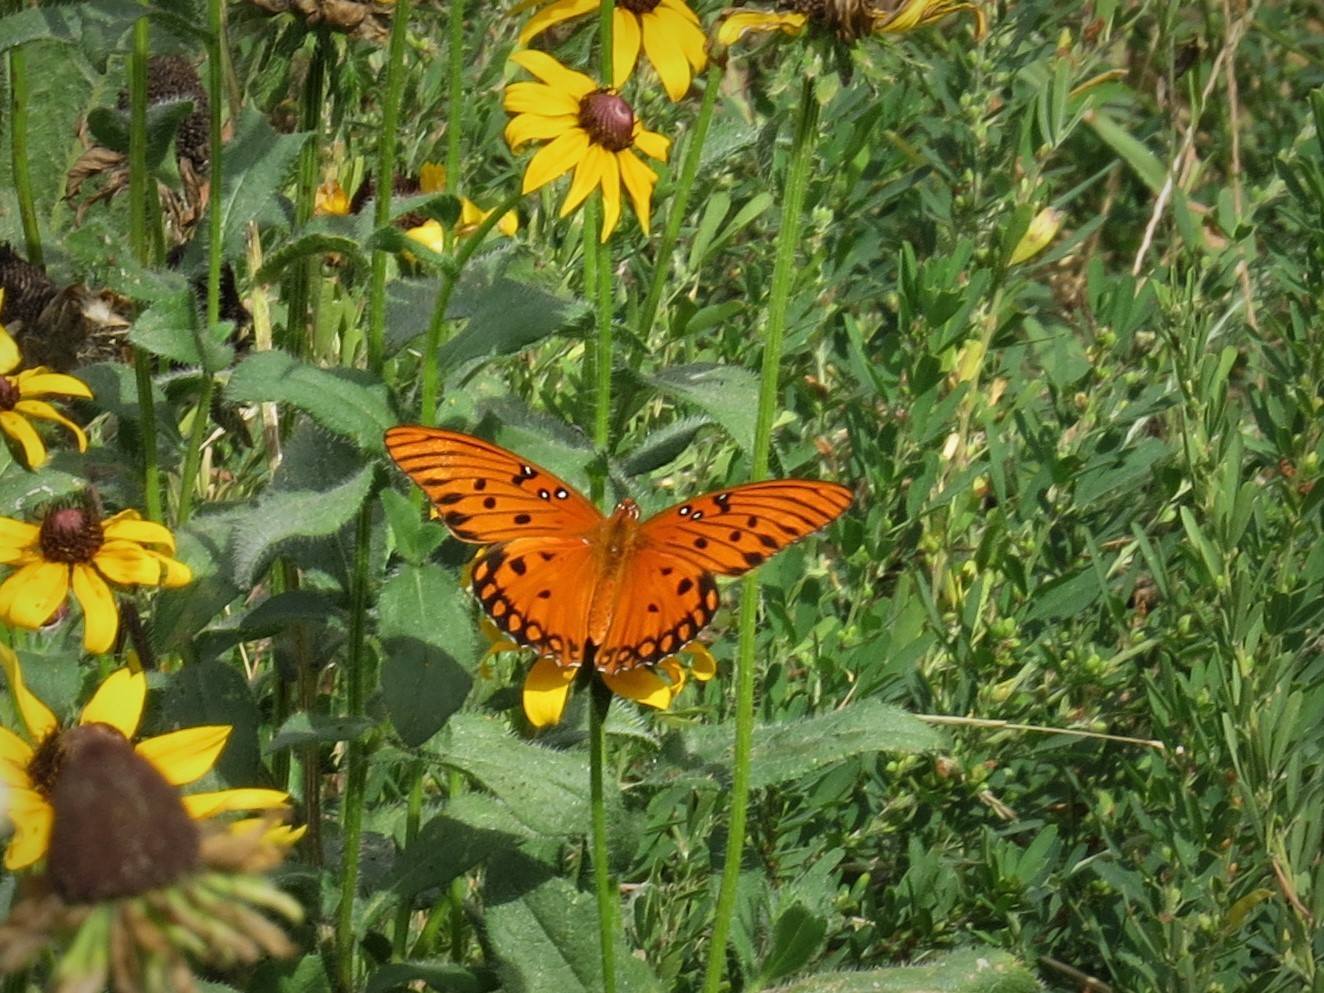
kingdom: Animalia
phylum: Arthropoda
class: Insecta
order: Lepidoptera
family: Nymphalidae
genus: Dione
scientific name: Dione vanillae
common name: Gulf fritillary
